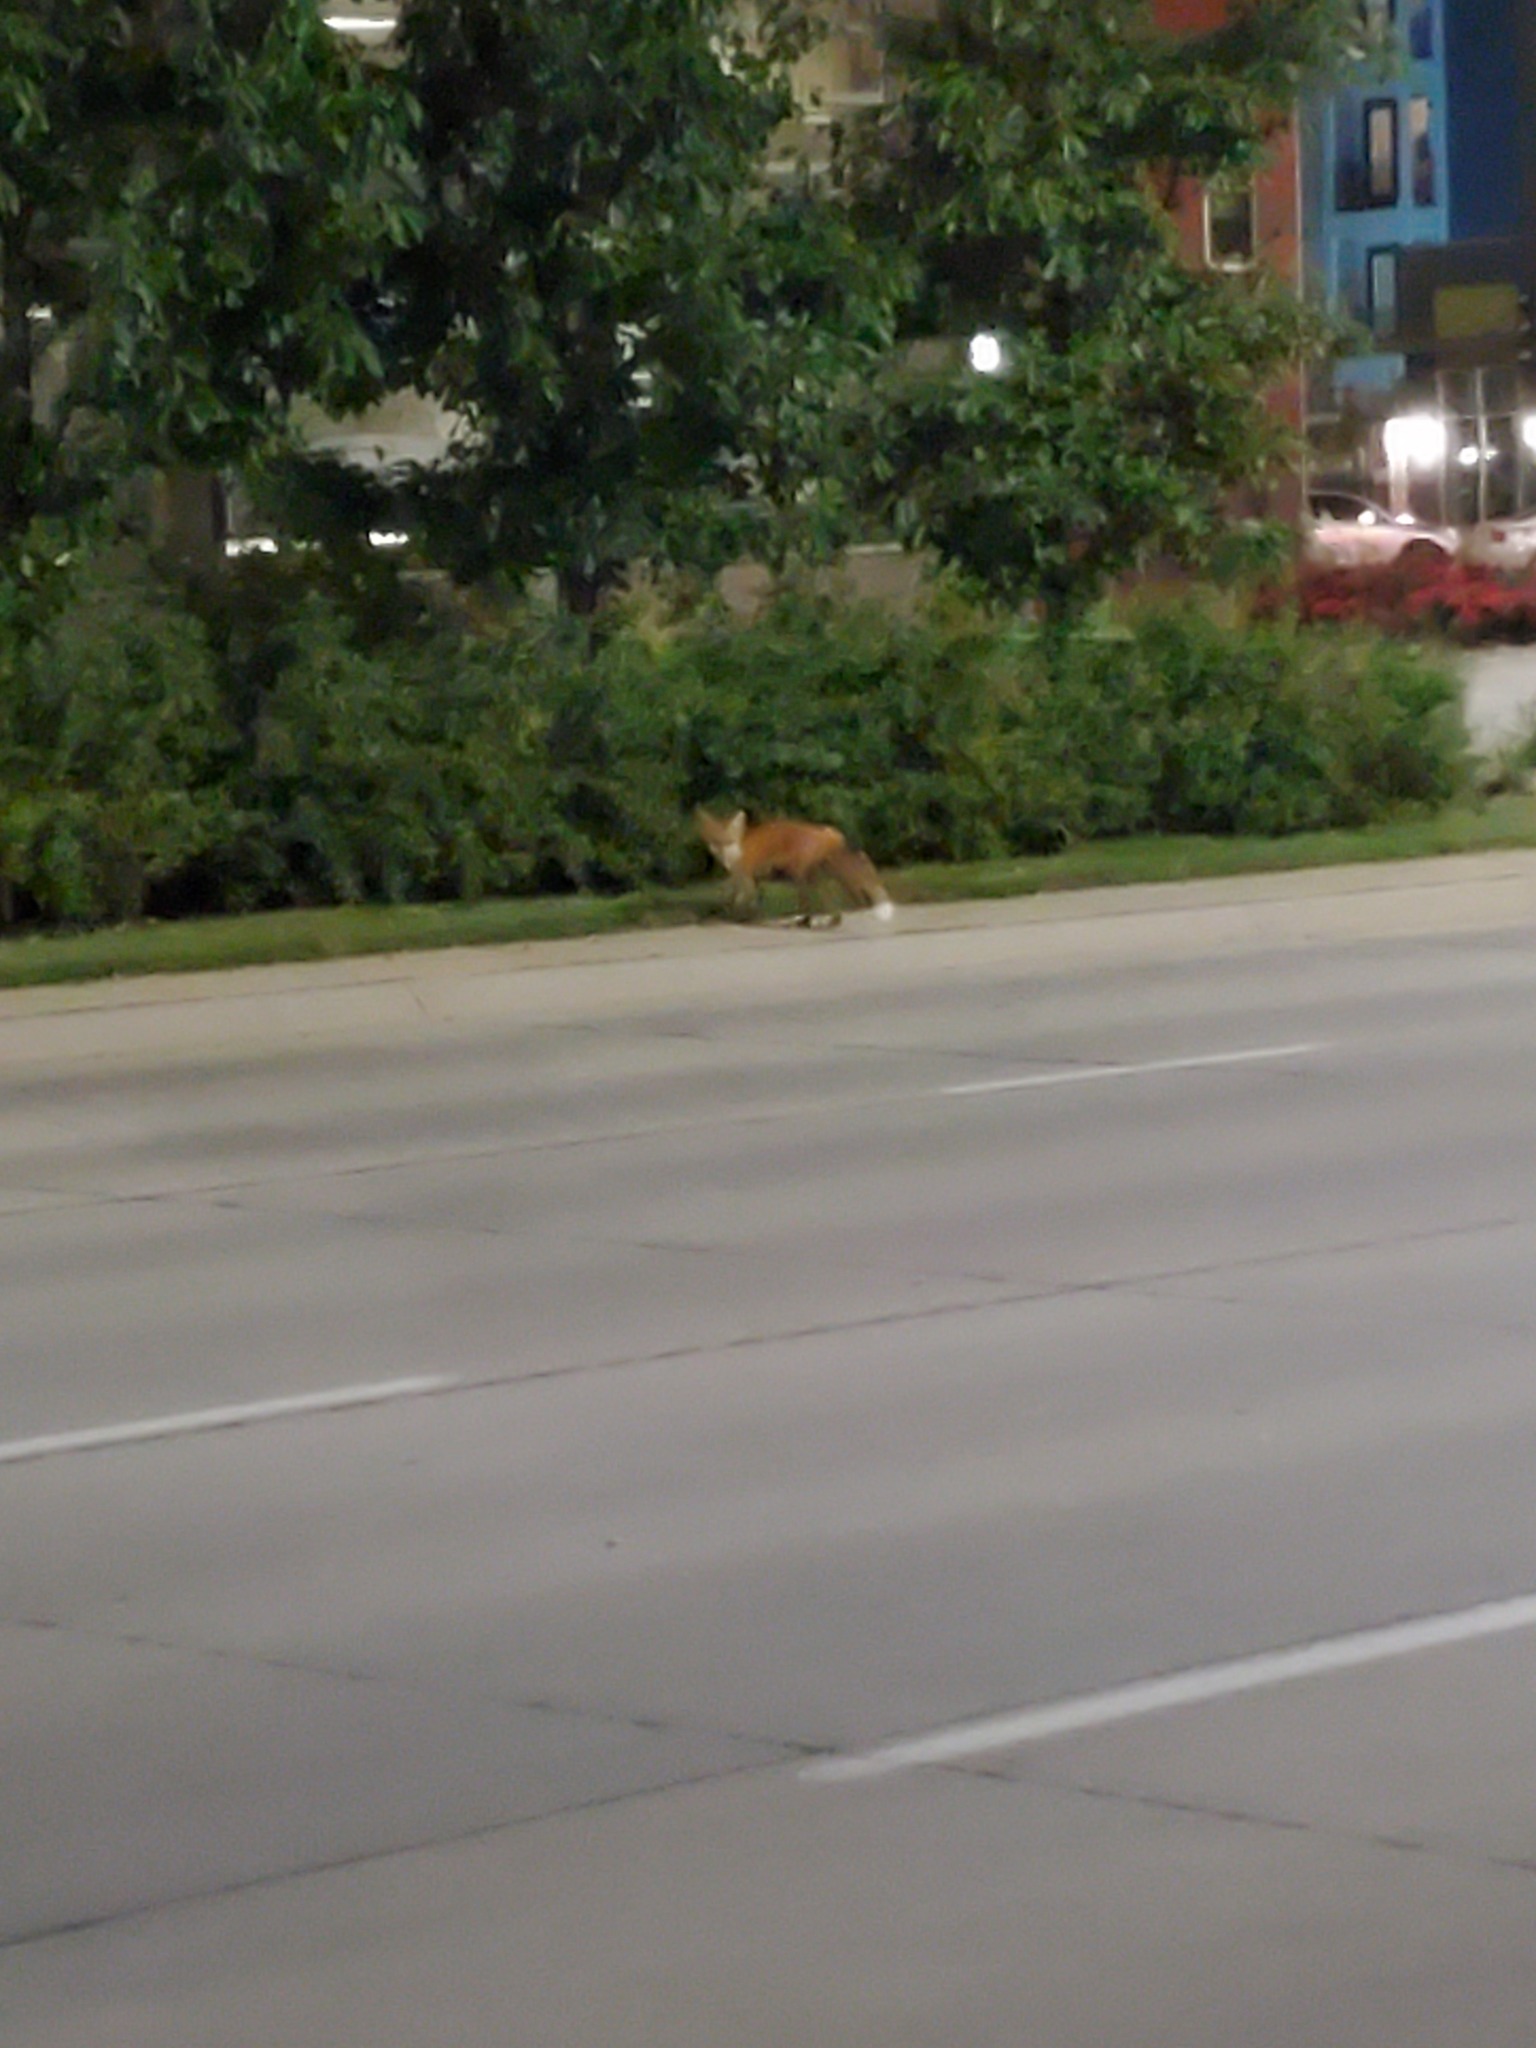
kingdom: Animalia
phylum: Chordata
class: Mammalia
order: Carnivora
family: Canidae
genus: Vulpes
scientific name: Vulpes vulpes
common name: Red fox
